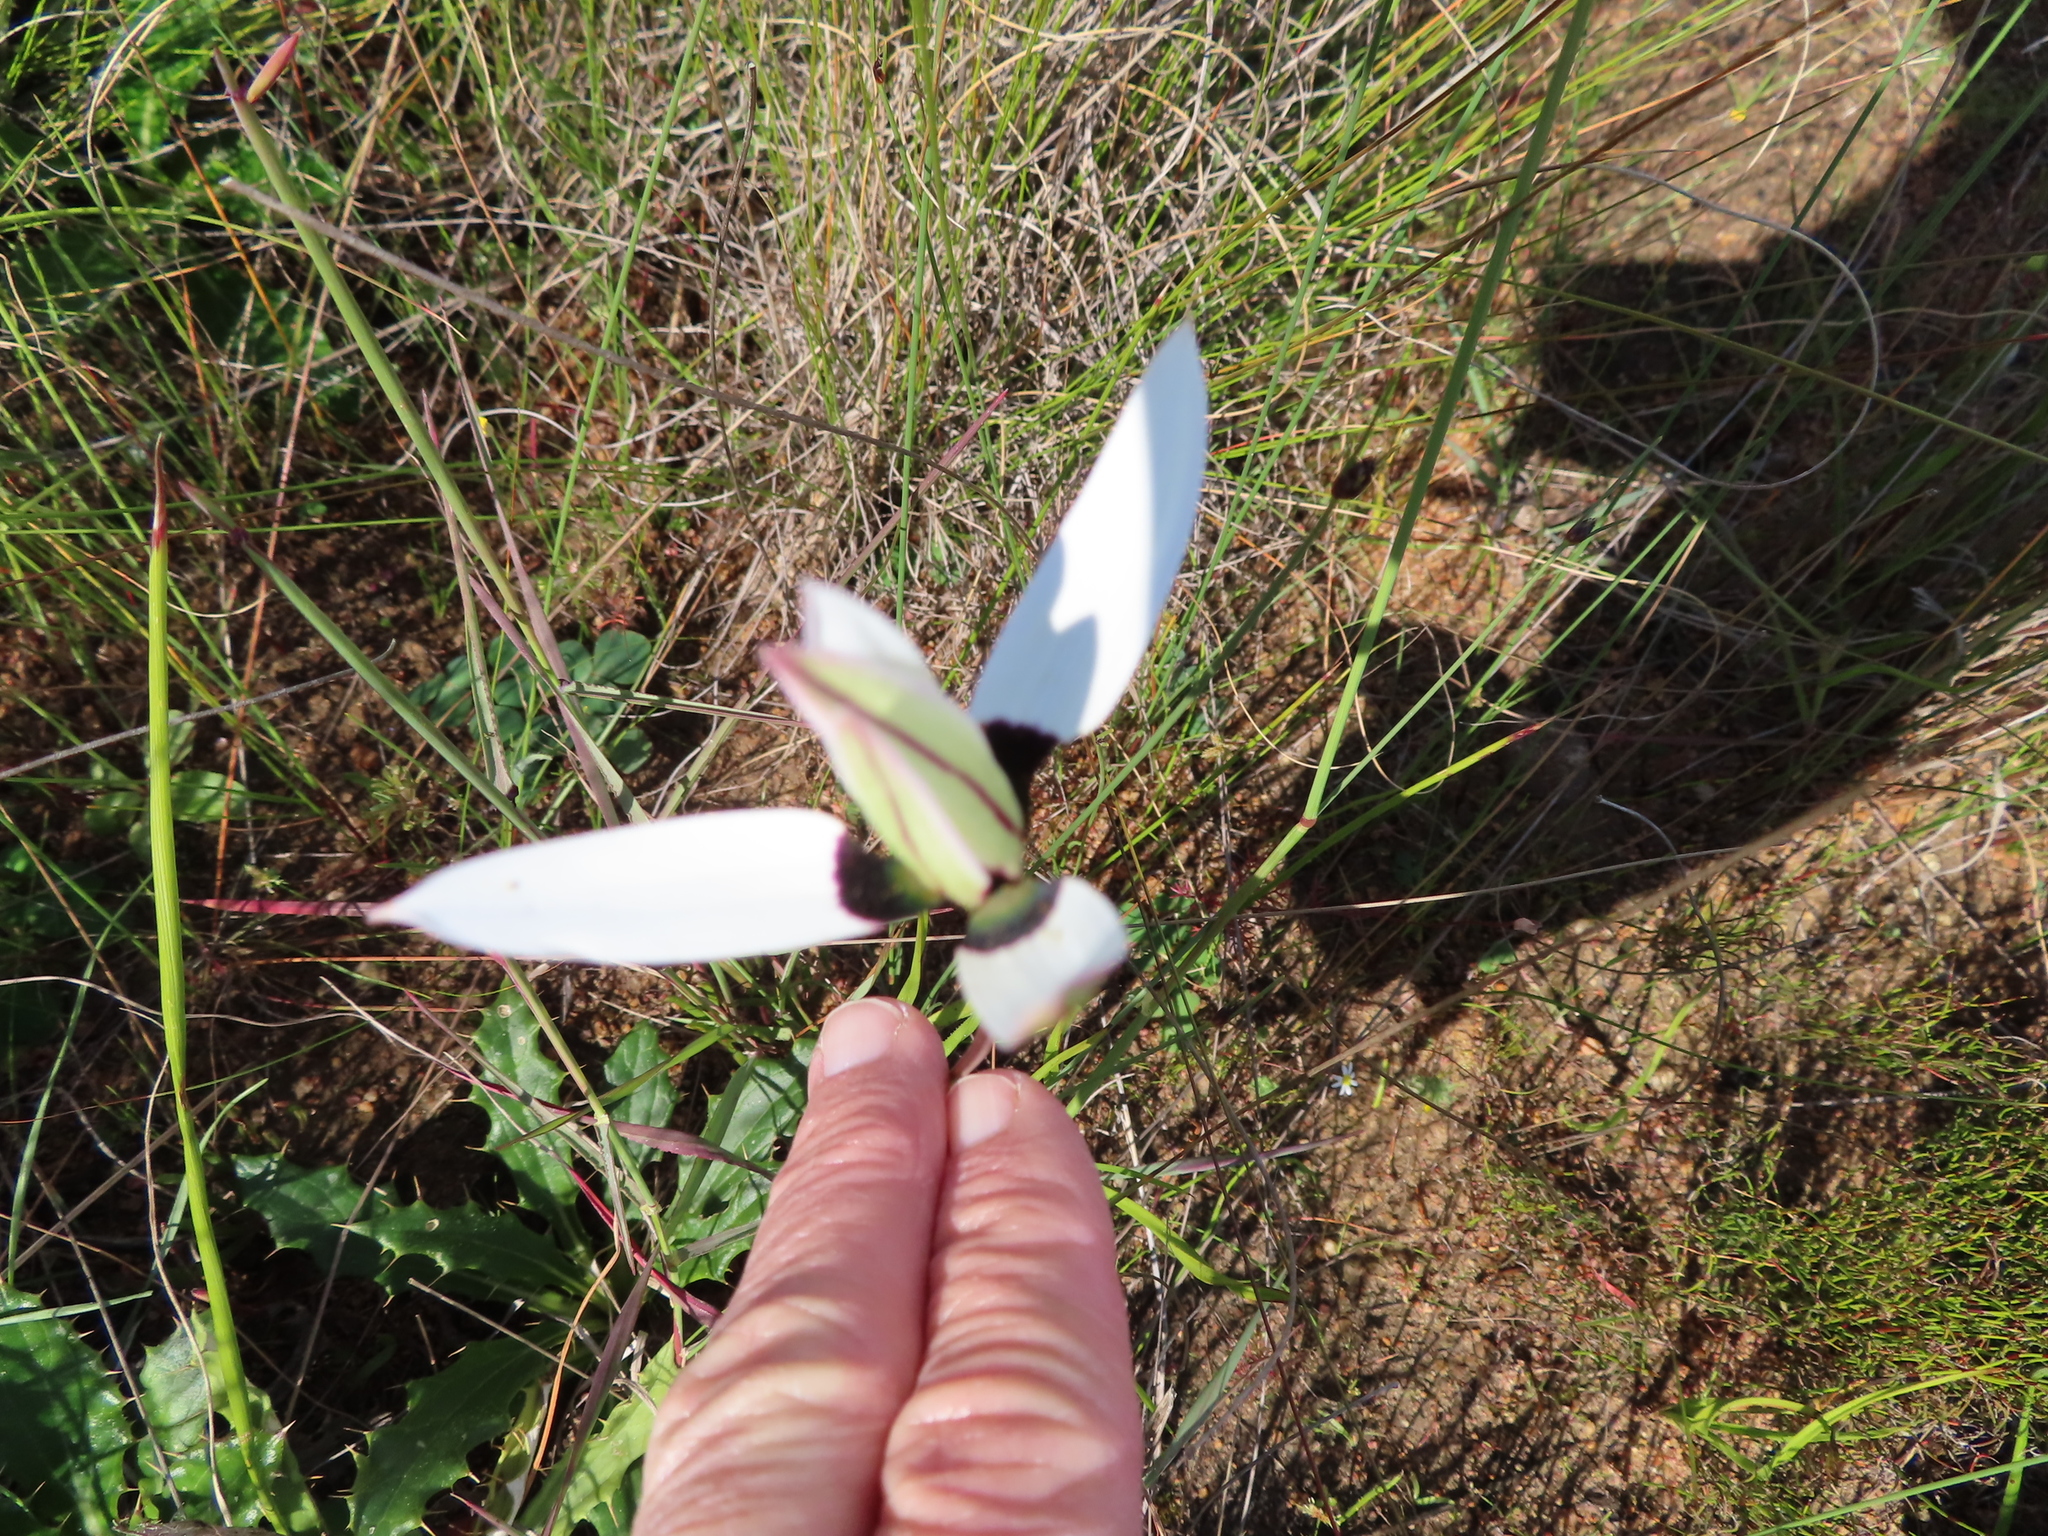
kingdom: Plantae
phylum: Tracheophyta
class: Liliopsida
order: Asparagales
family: Hypoxidaceae
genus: Pauridia
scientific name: Pauridia capensis
